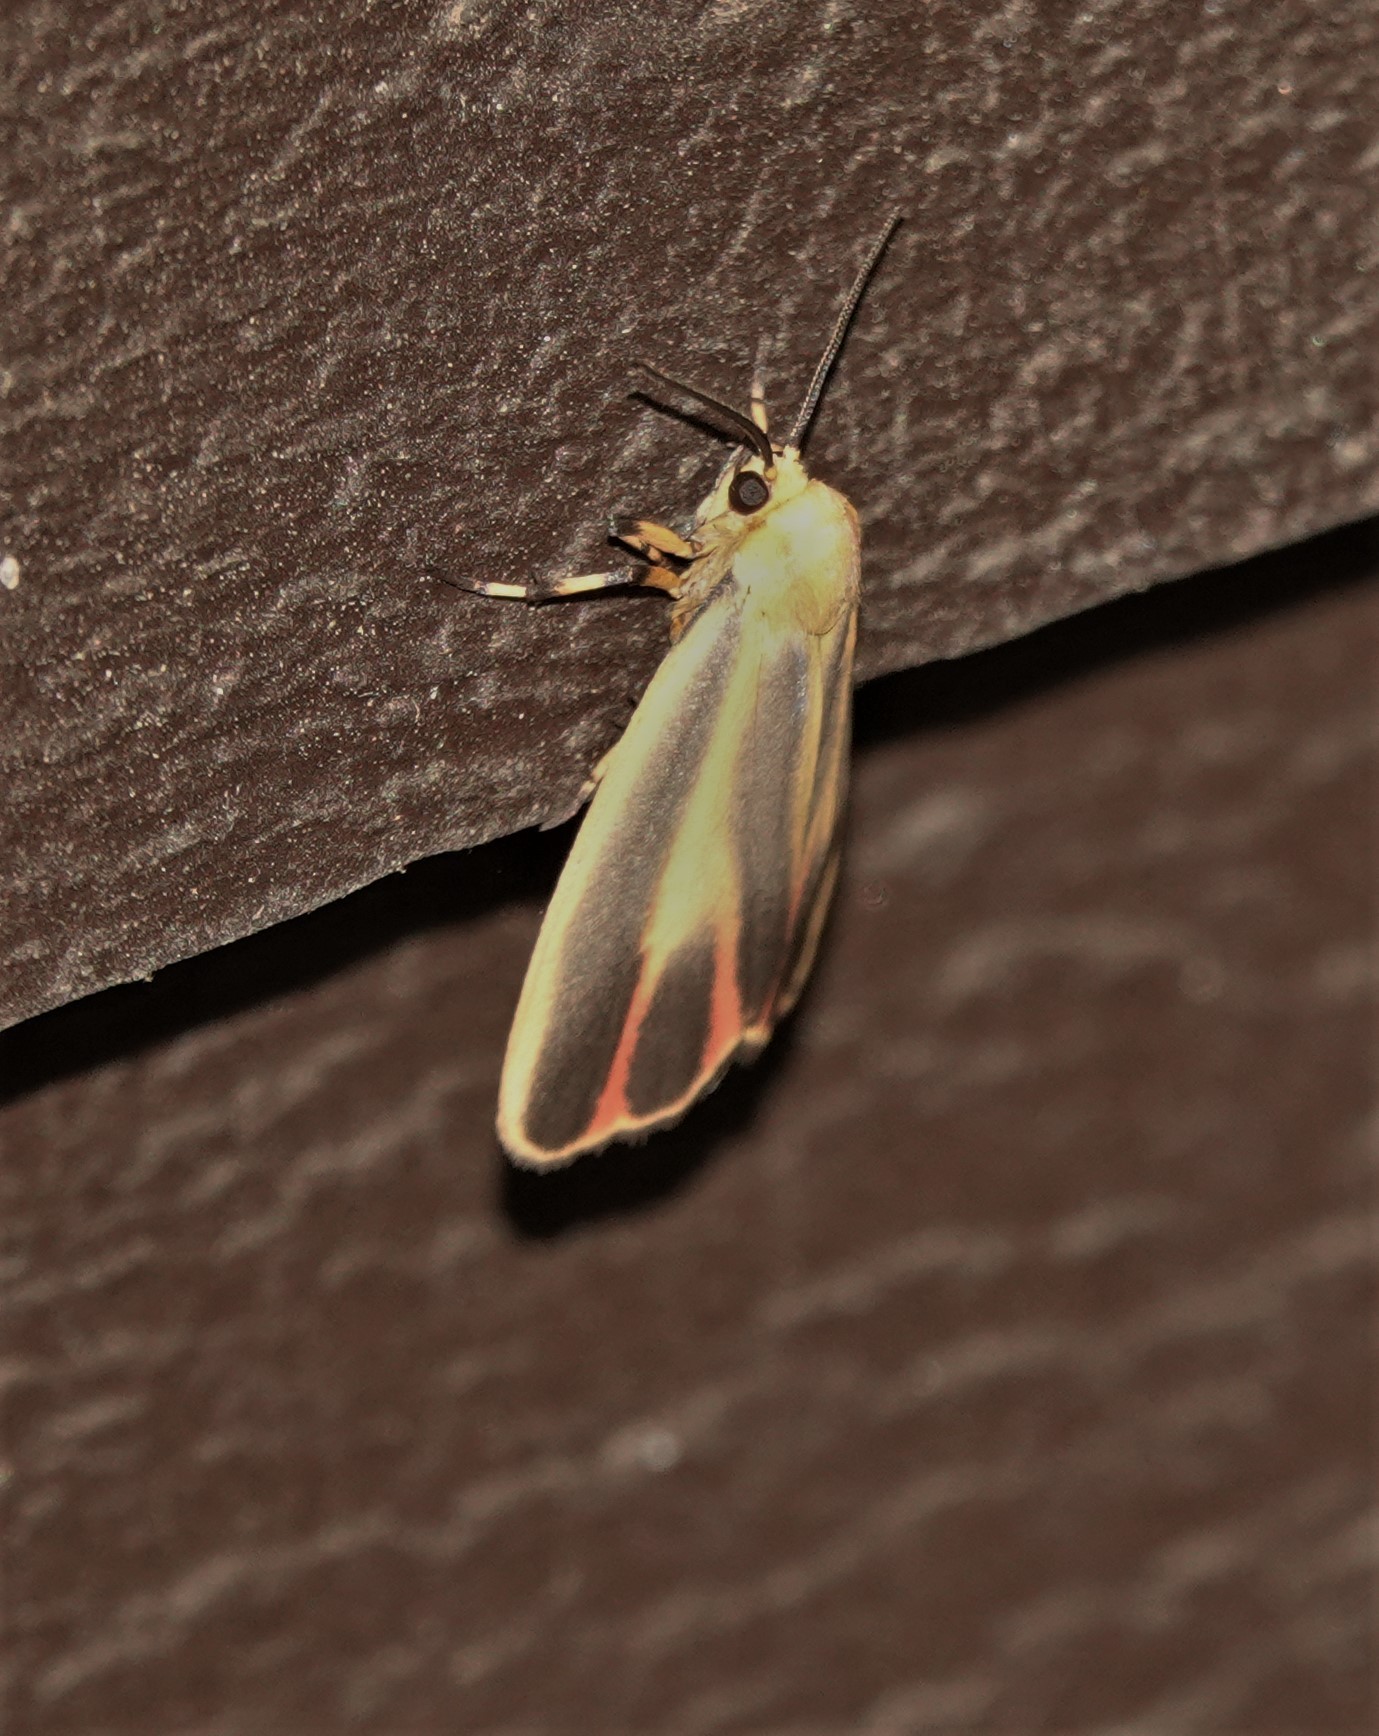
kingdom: Animalia
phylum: Arthropoda
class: Insecta
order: Lepidoptera
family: Erebidae
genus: Hypoprepia
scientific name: Hypoprepia fucosa
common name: Painted lichen moth
